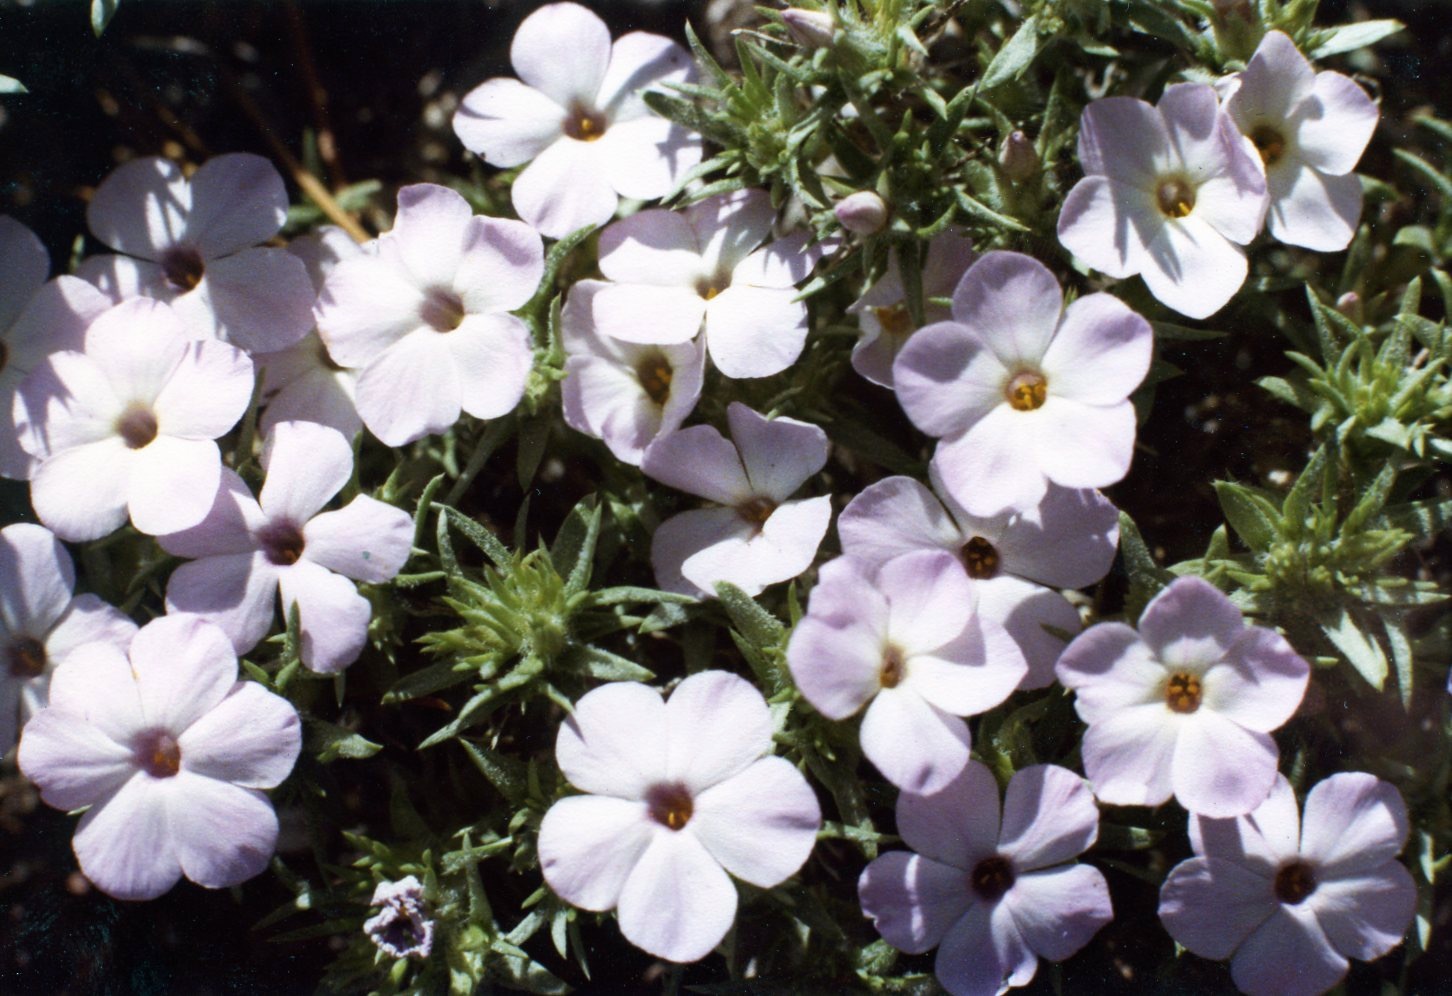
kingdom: Plantae
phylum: Tracheophyta
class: Magnoliopsida
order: Ericales
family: Polemoniaceae
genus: Phlox
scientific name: Phlox diffusa
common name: Mat phlox
